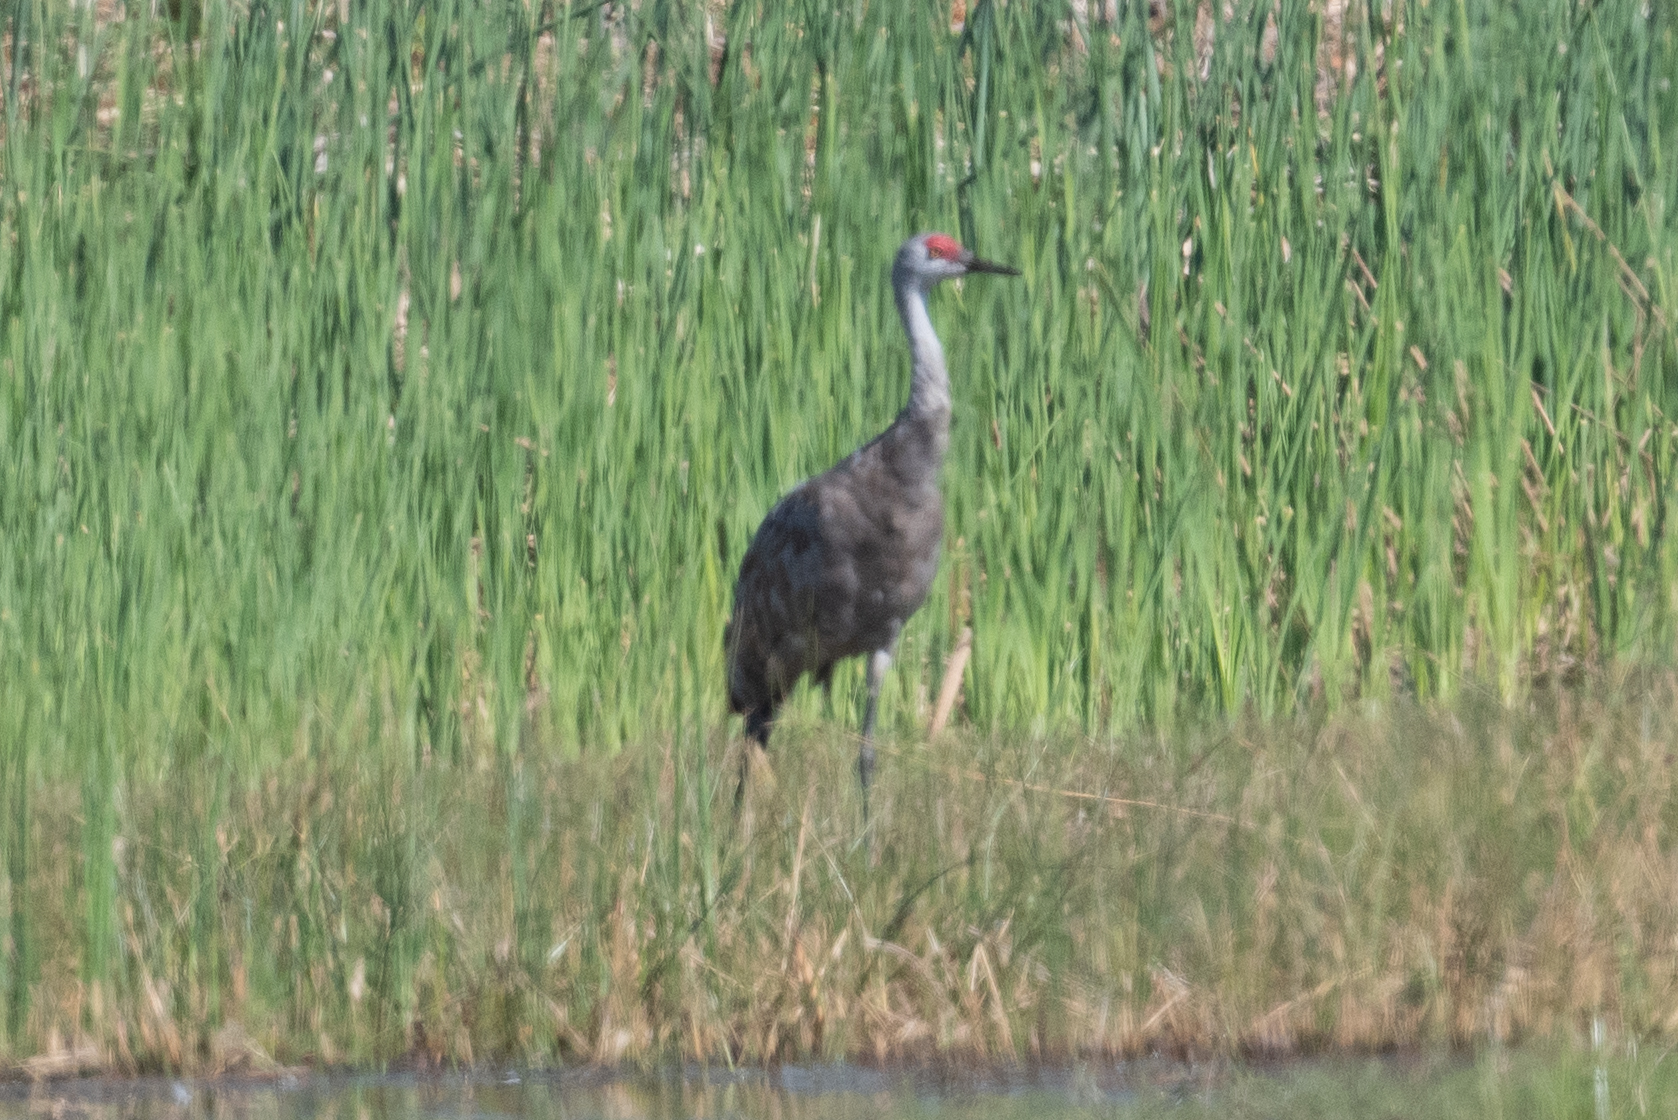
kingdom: Animalia
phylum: Chordata
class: Aves
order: Gruiformes
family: Gruidae
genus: Grus
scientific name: Grus canadensis
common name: Sandhill crane
